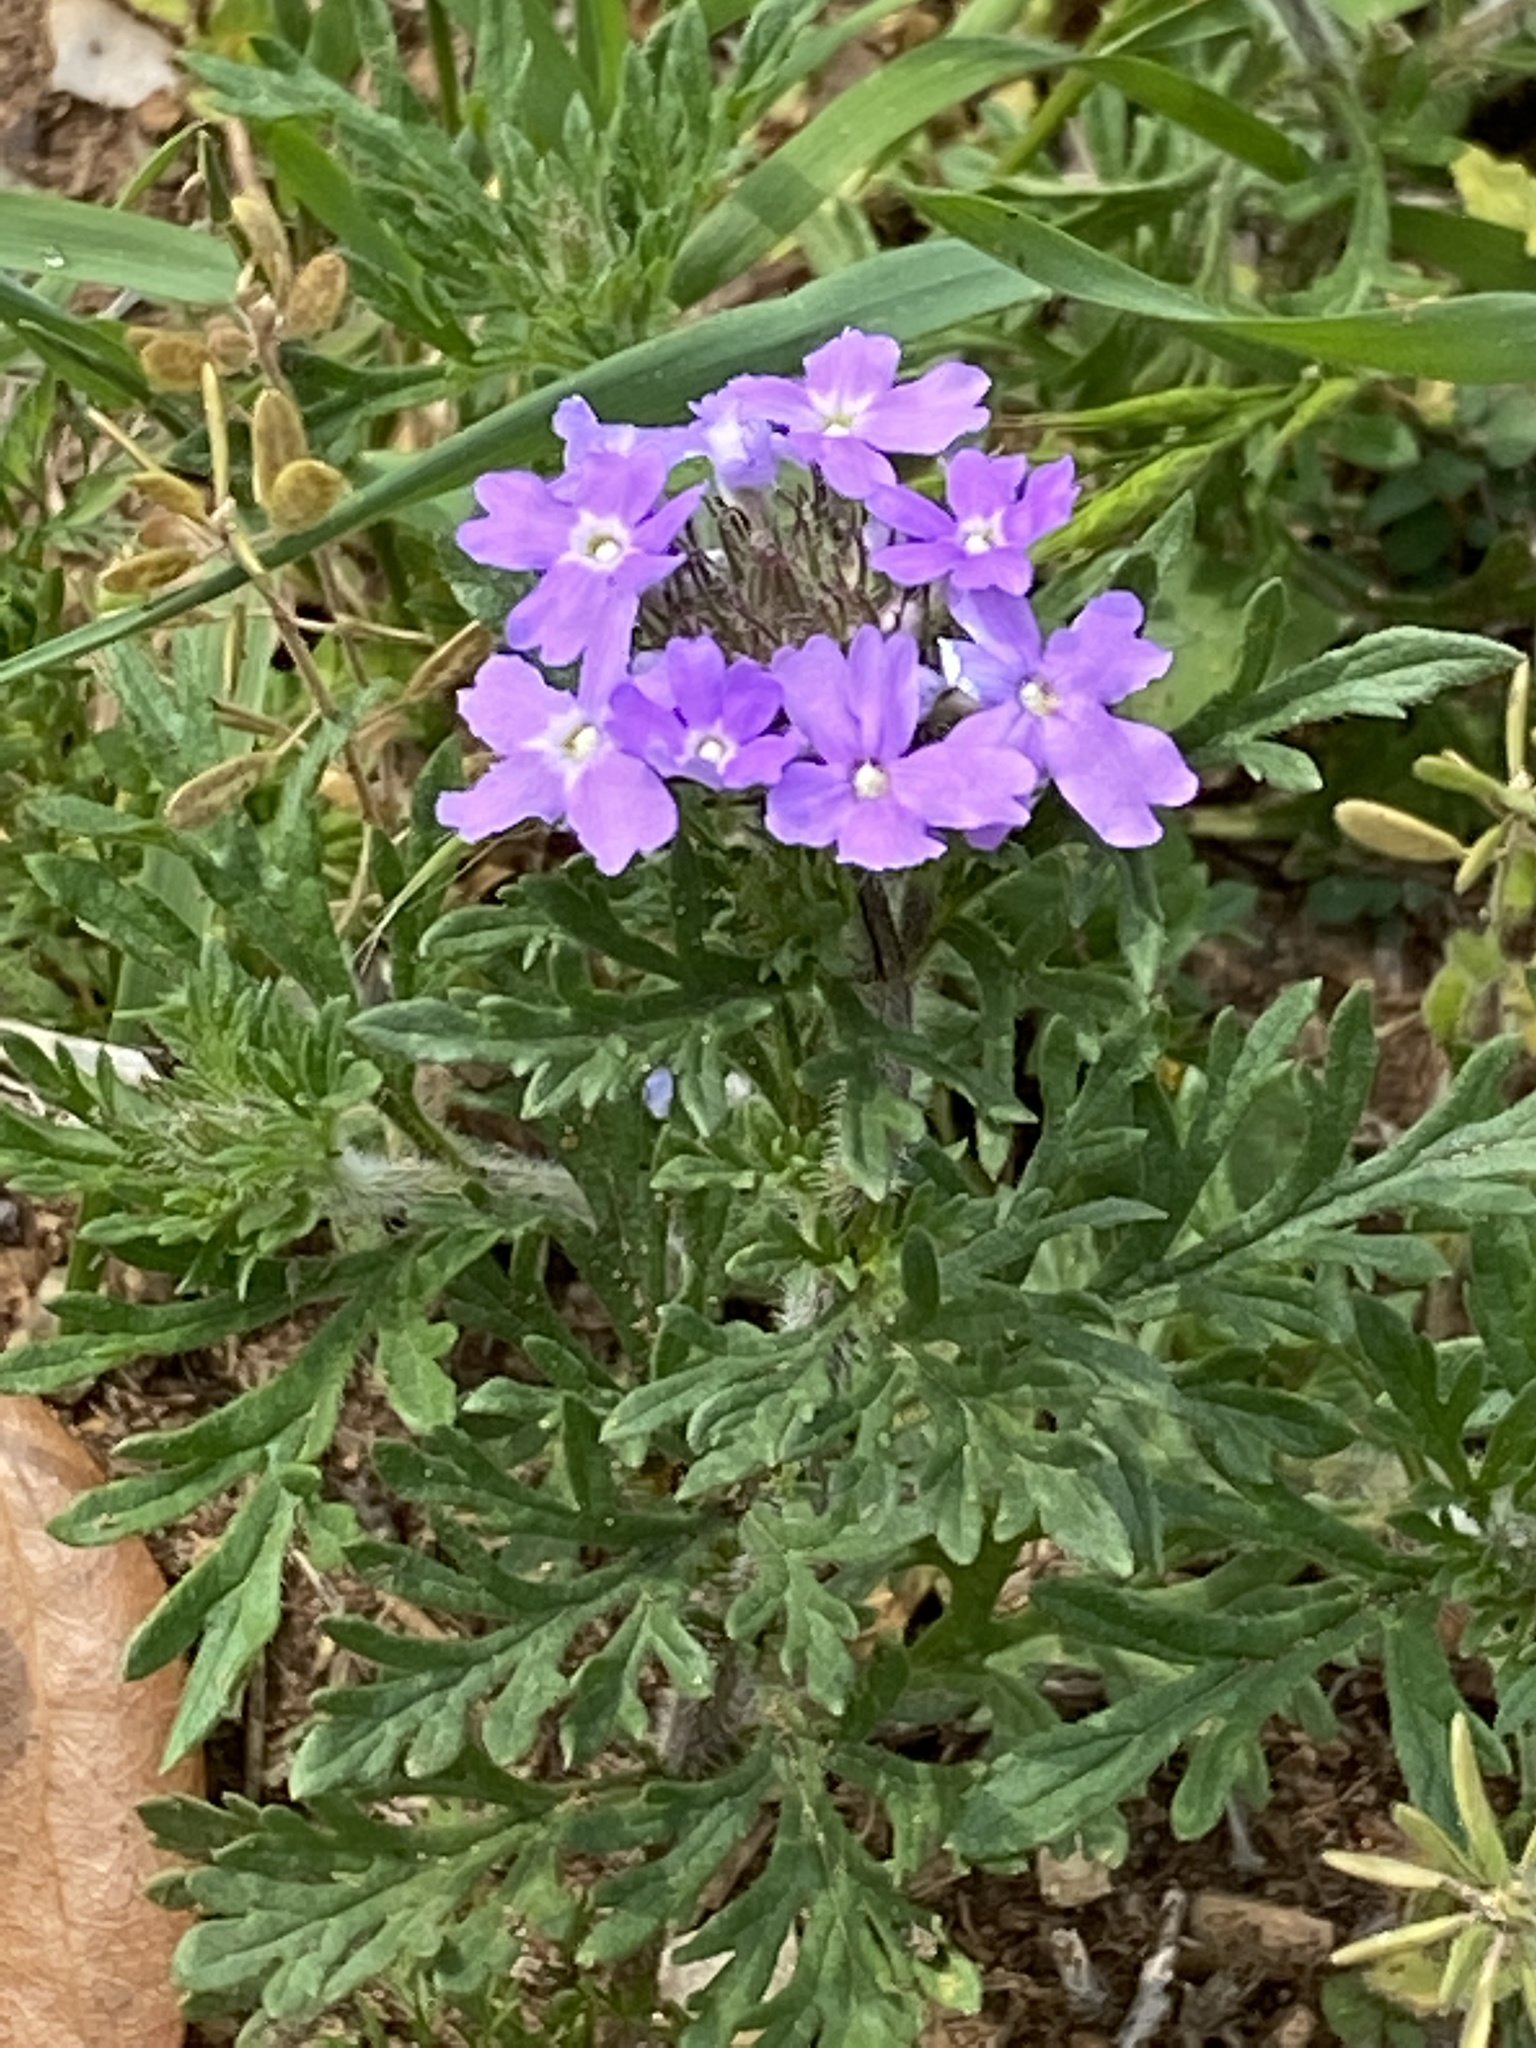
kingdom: Plantae
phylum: Tracheophyta
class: Magnoliopsida
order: Lamiales
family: Verbenaceae
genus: Verbena
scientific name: Verbena bipinnatifida
